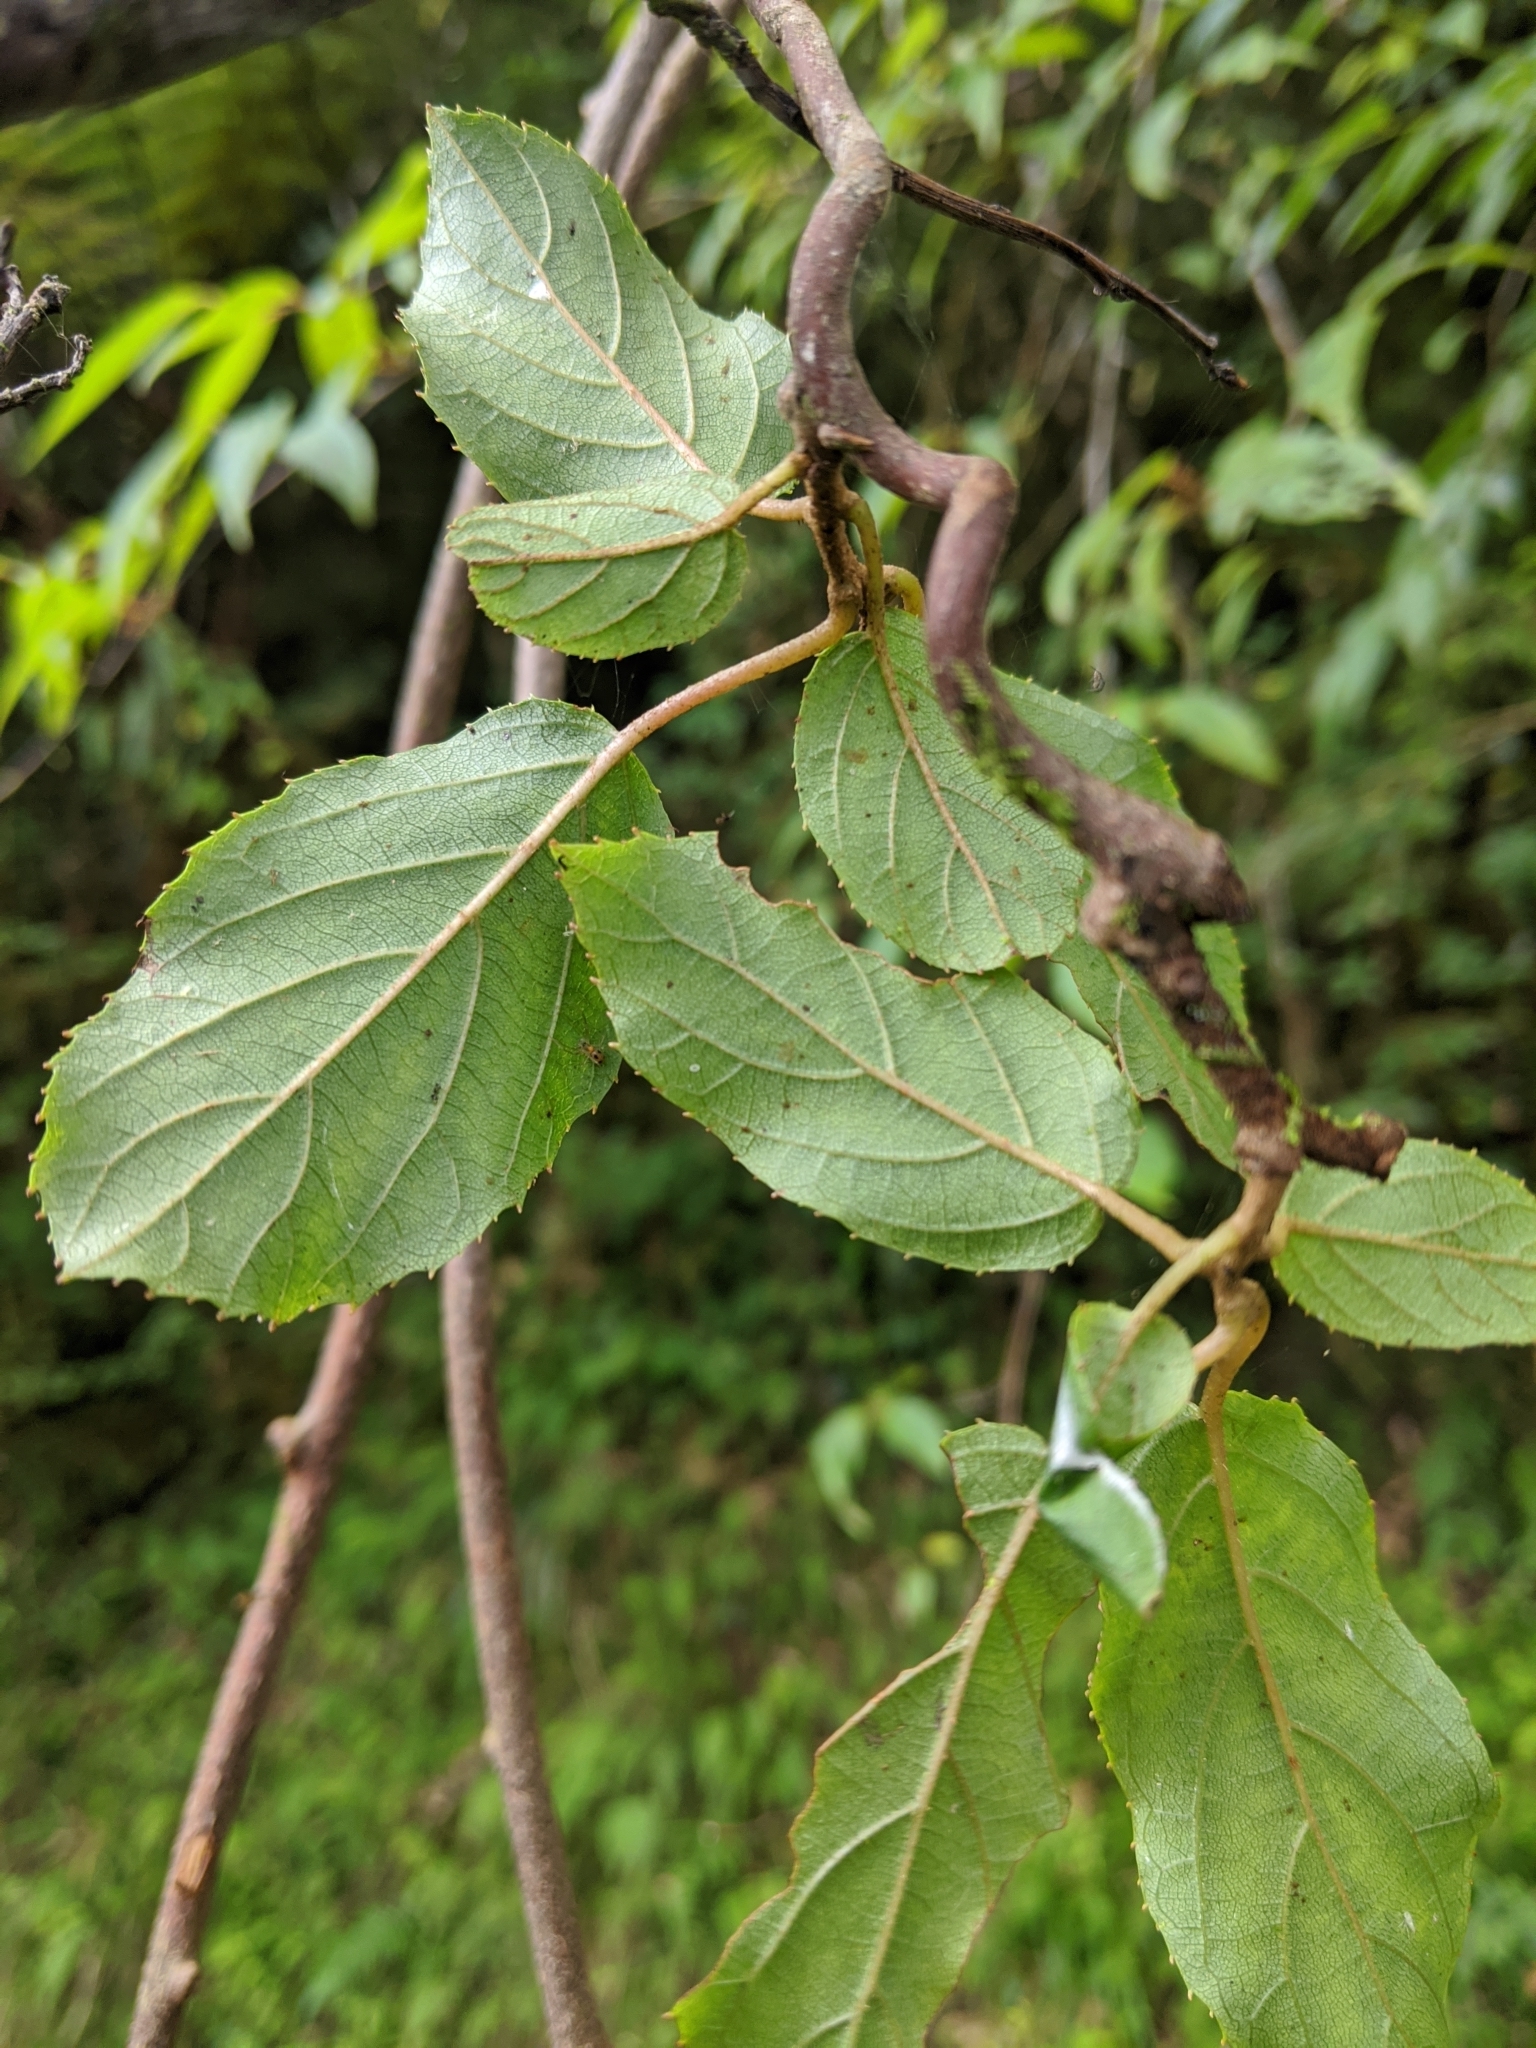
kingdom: Plantae
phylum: Tracheophyta
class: Magnoliopsida
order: Ericales
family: Actinidiaceae
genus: Actinidia
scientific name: Actinidia rufa
